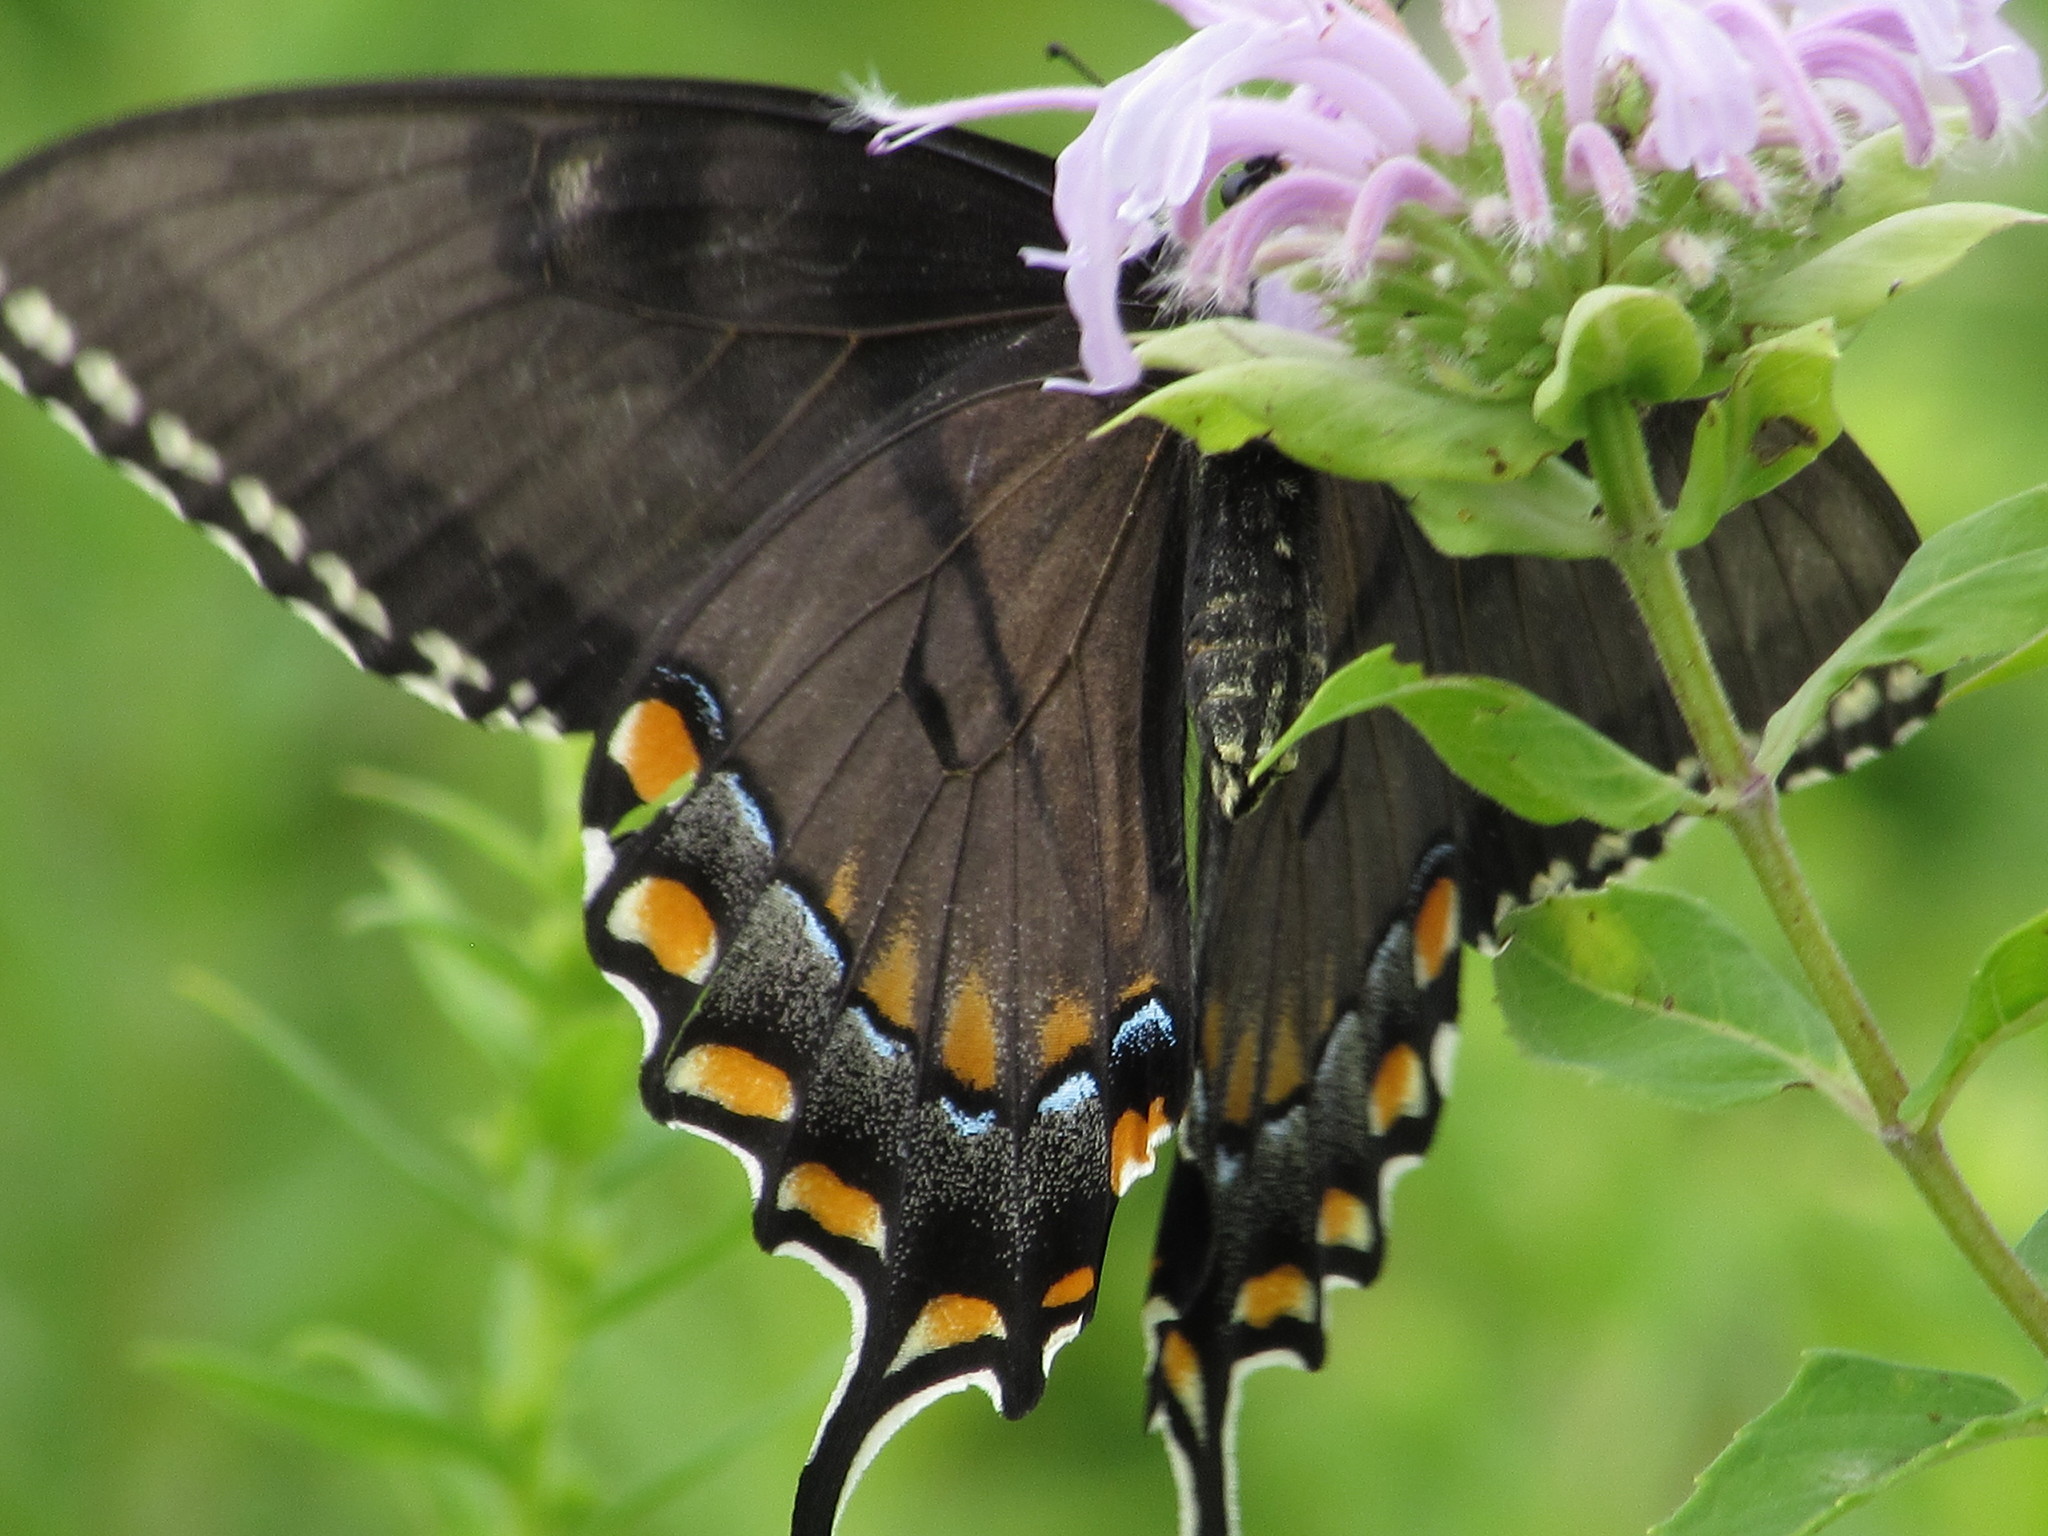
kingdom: Animalia
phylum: Arthropoda
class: Insecta
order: Lepidoptera
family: Papilionidae
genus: Papilio
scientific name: Papilio glaucus
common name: Tiger swallowtail
